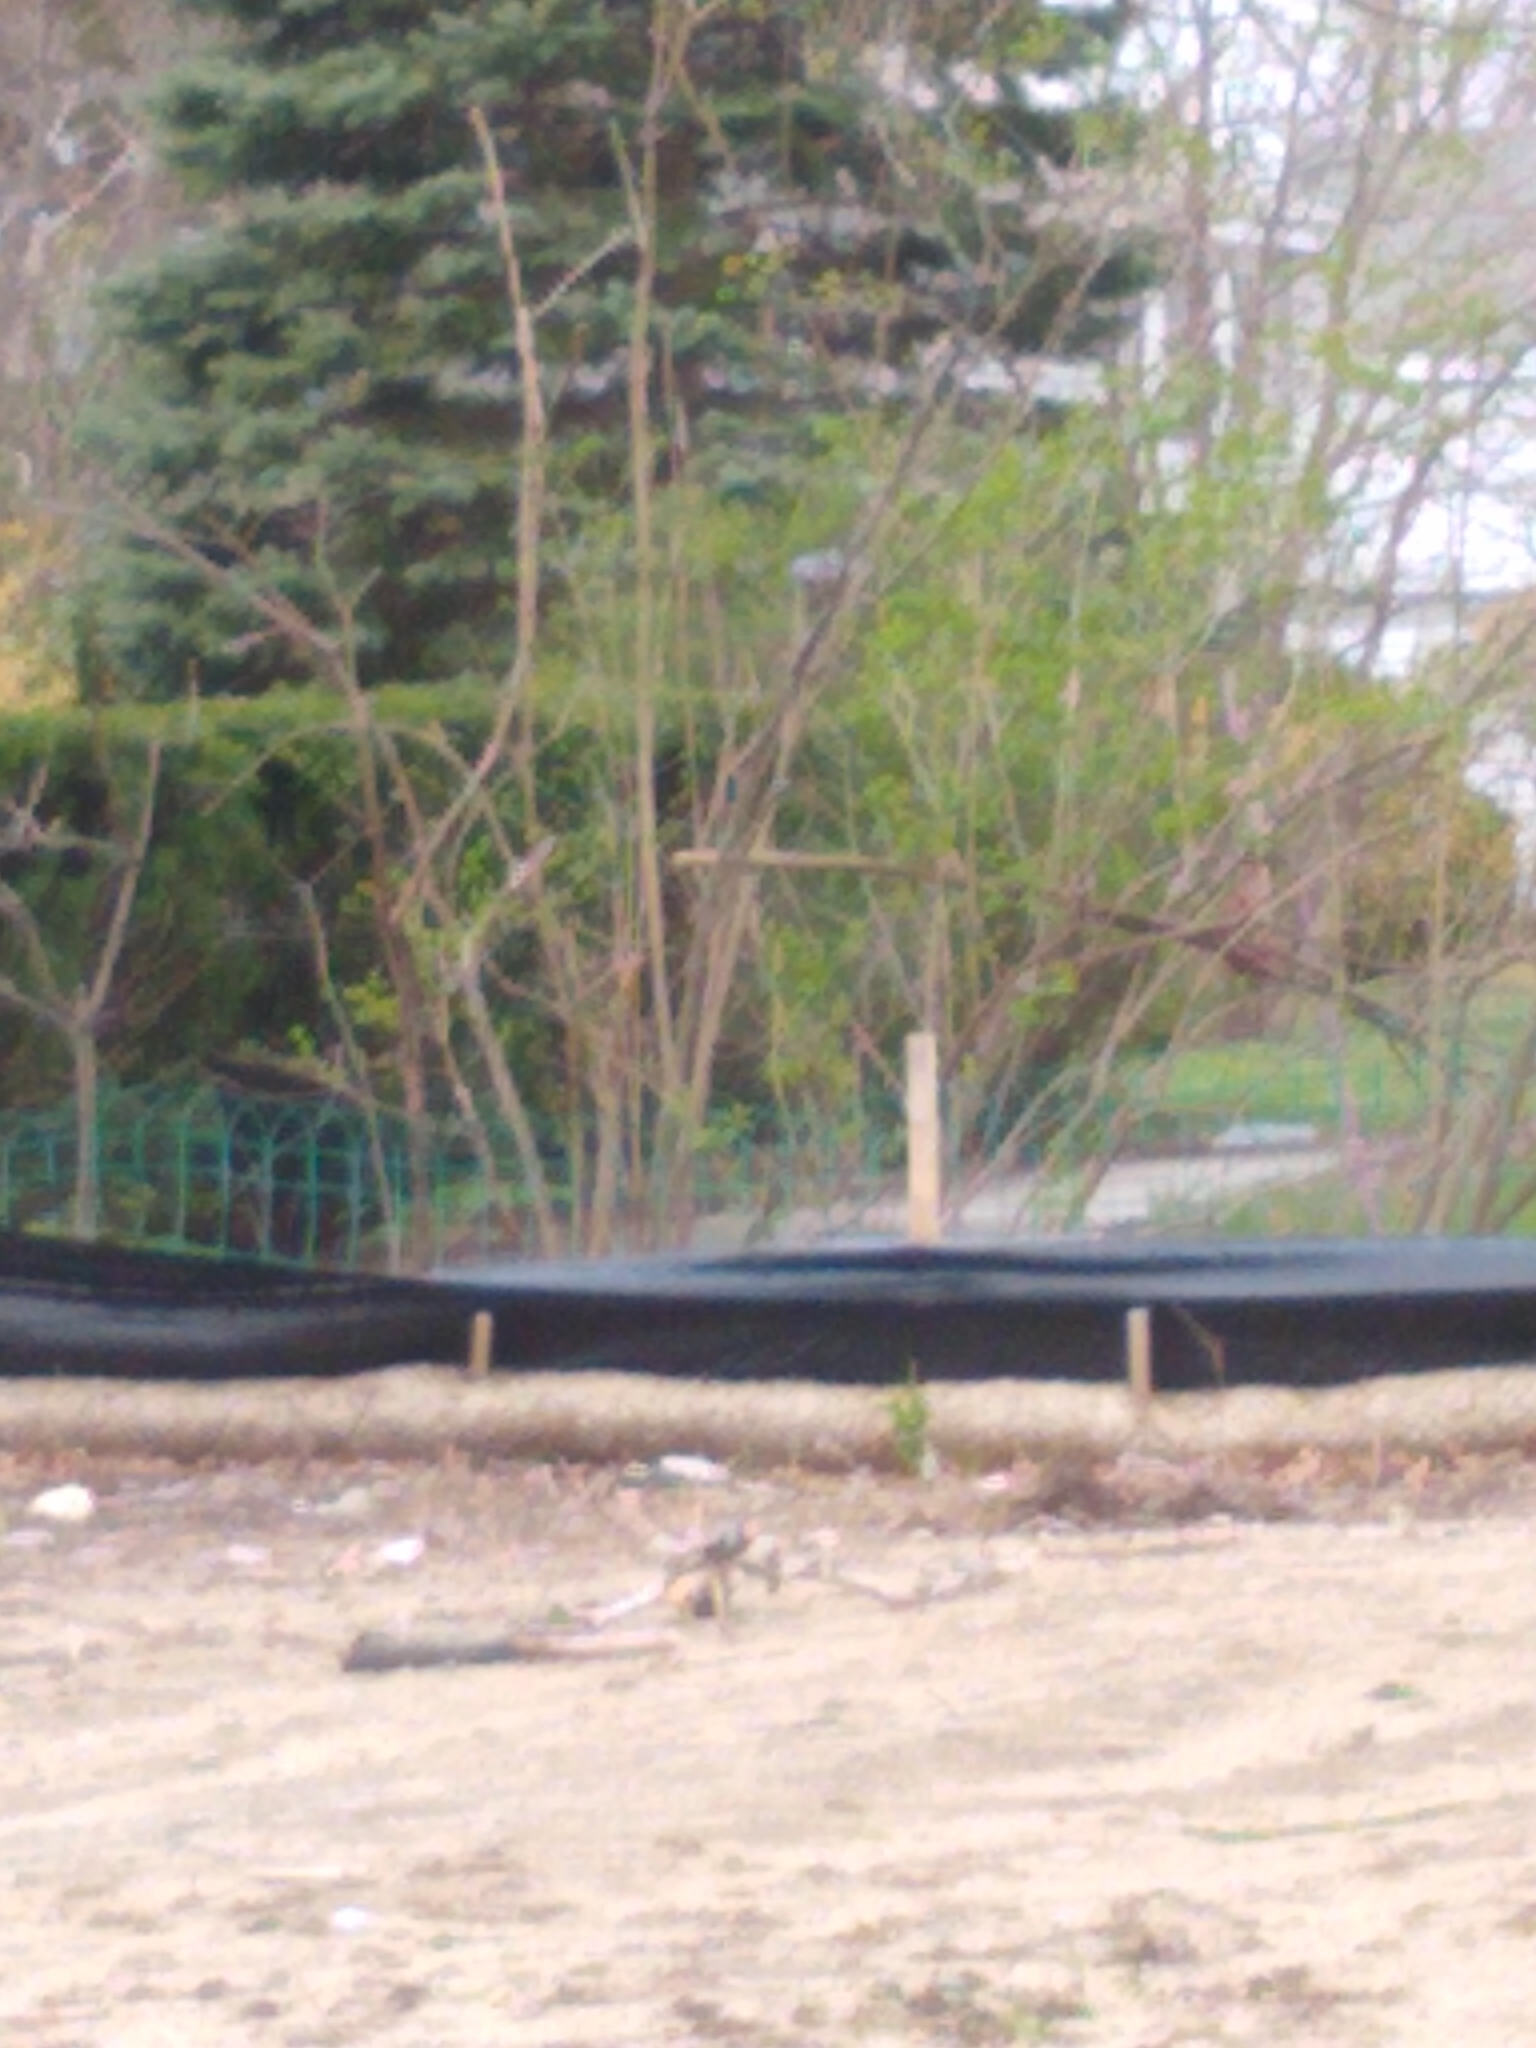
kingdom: Animalia
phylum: Chordata
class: Aves
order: Passeriformes
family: Corvidae
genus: Cyanocitta
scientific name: Cyanocitta cristata
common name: Blue jay
